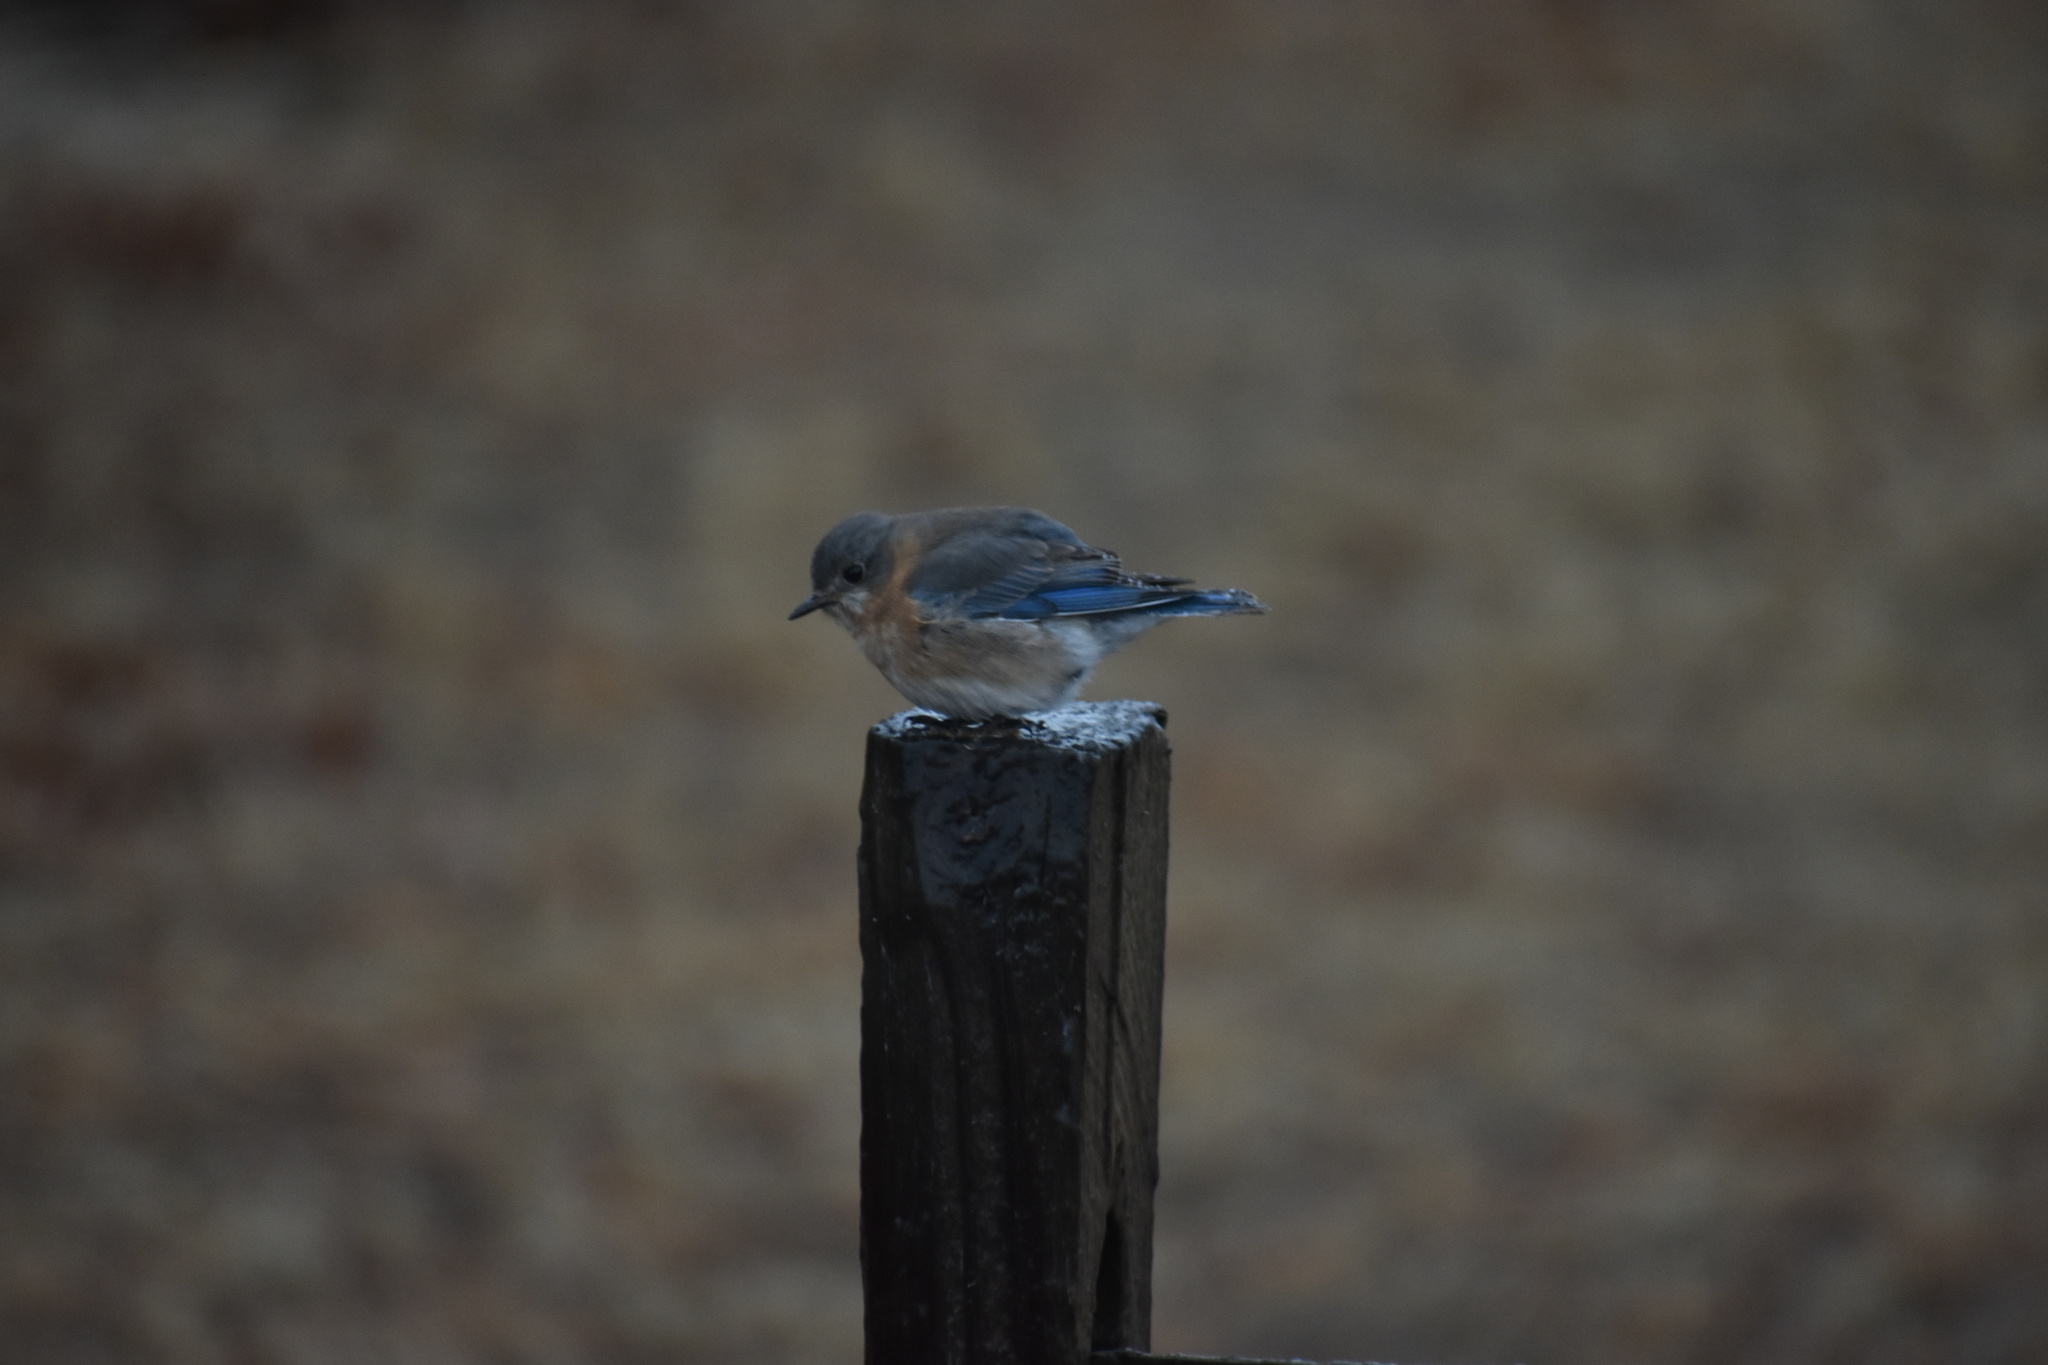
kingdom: Animalia
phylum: Chordata
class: Aves
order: Passeriformes
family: Turdidae
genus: Sialia
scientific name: Sialia sialis
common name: Eastern bluebird
